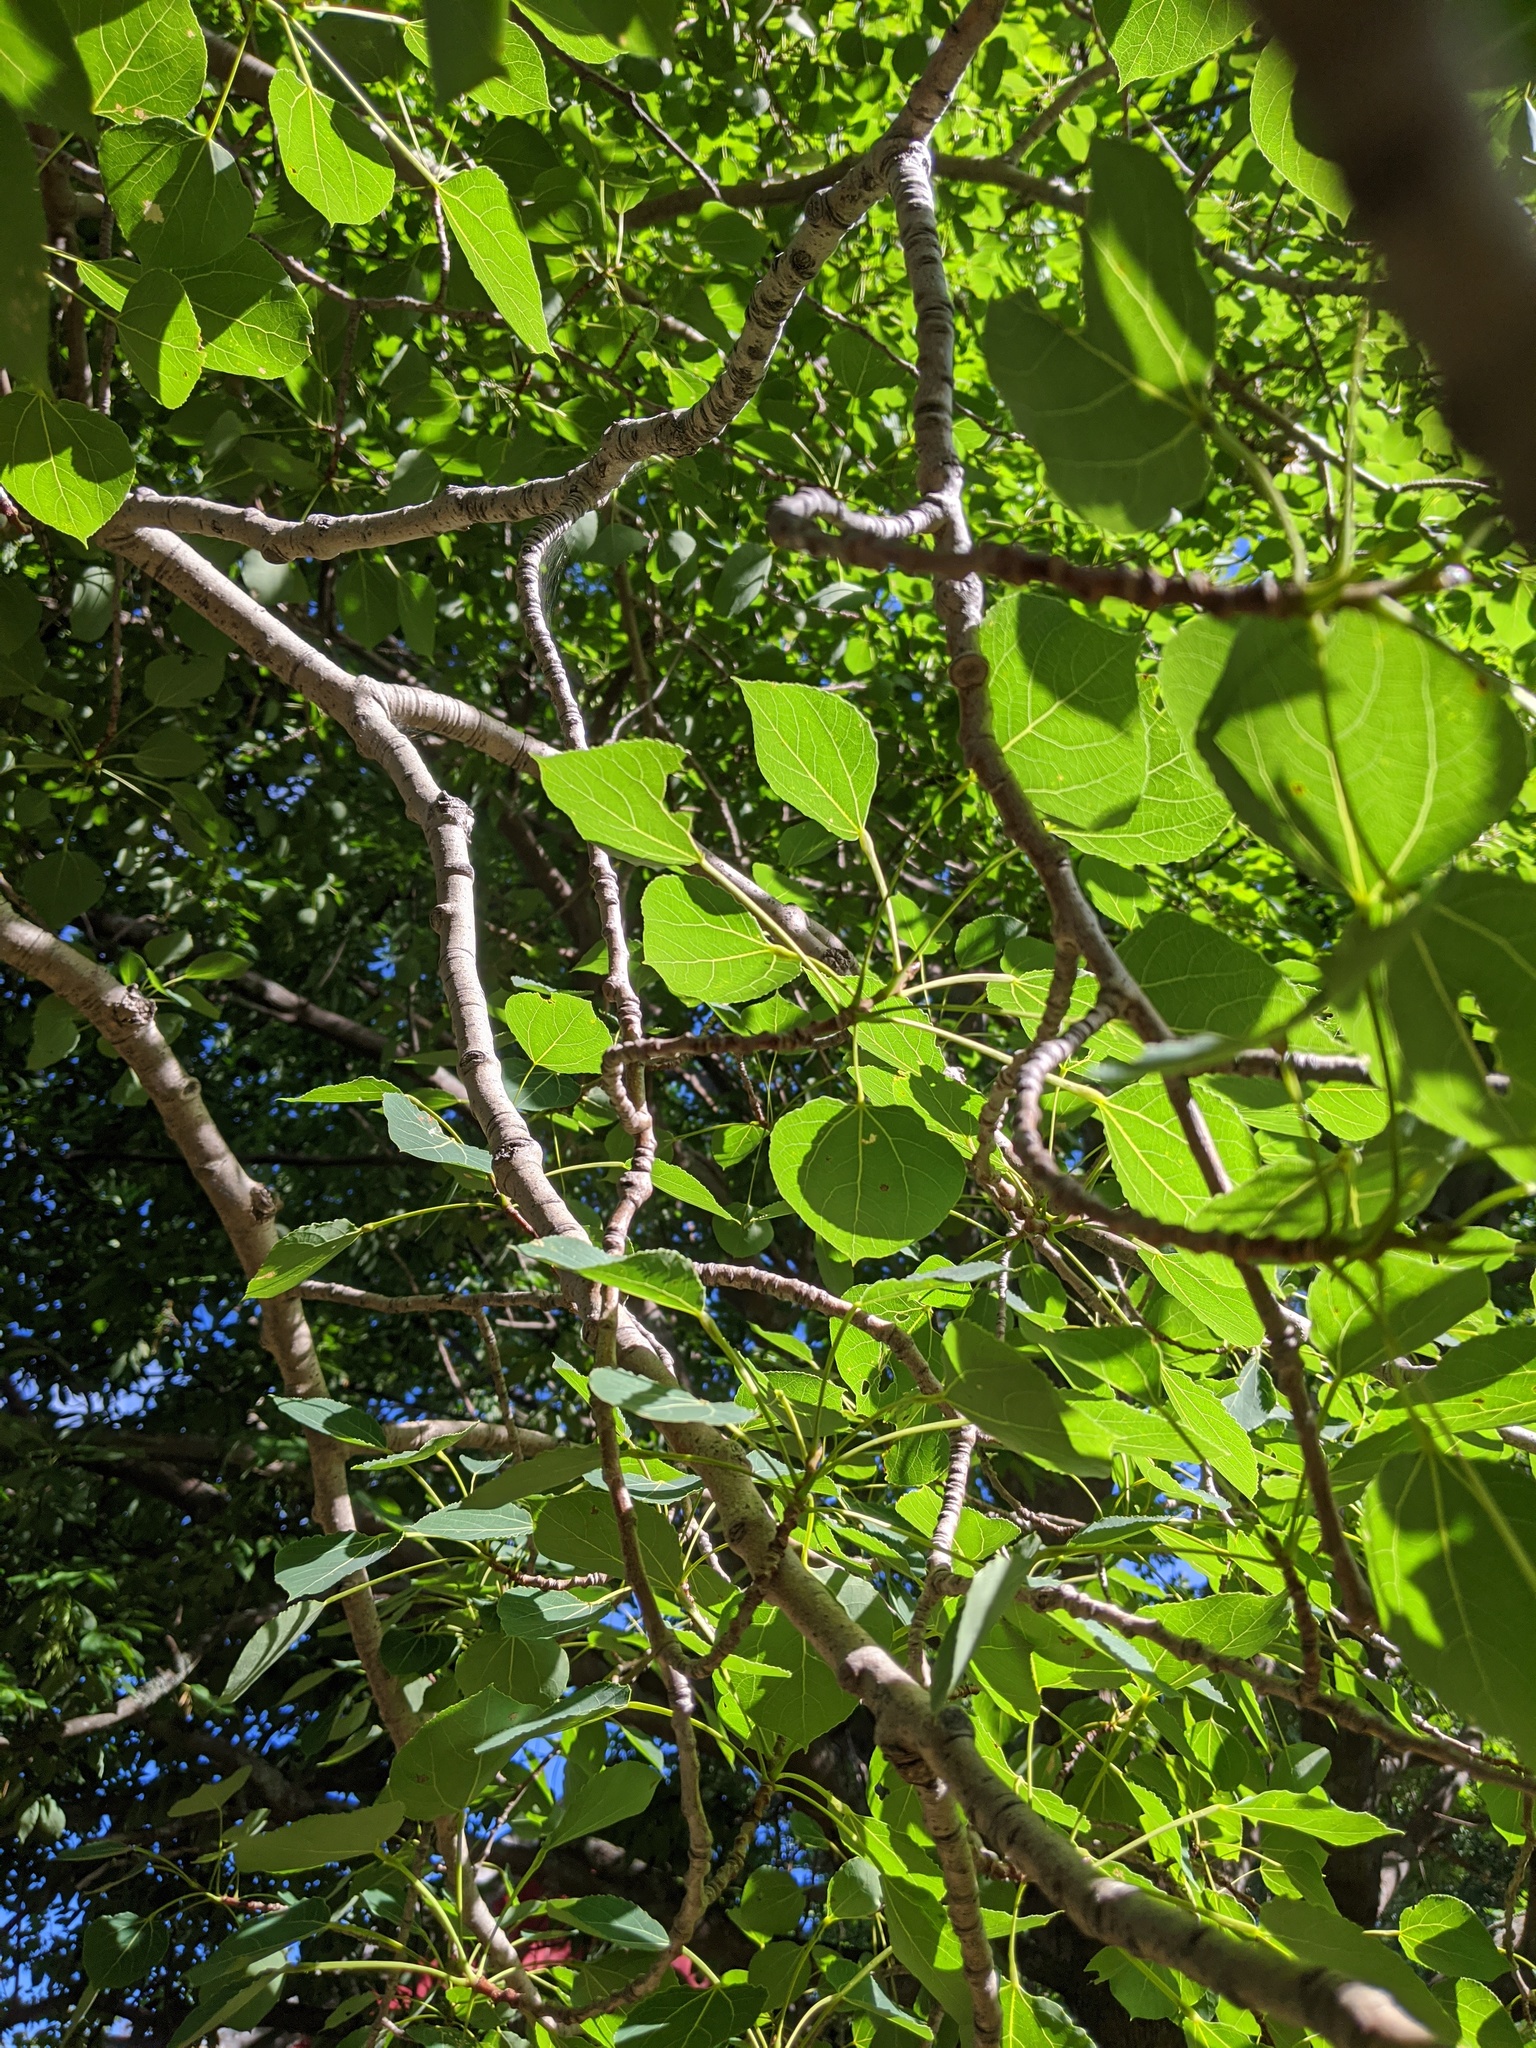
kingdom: Plantae
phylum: Tracheophyta
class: Magnoliopsida
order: Malpighiales
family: Salicaceae
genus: Populus
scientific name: Populus tremuloides
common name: Quaking aspen
